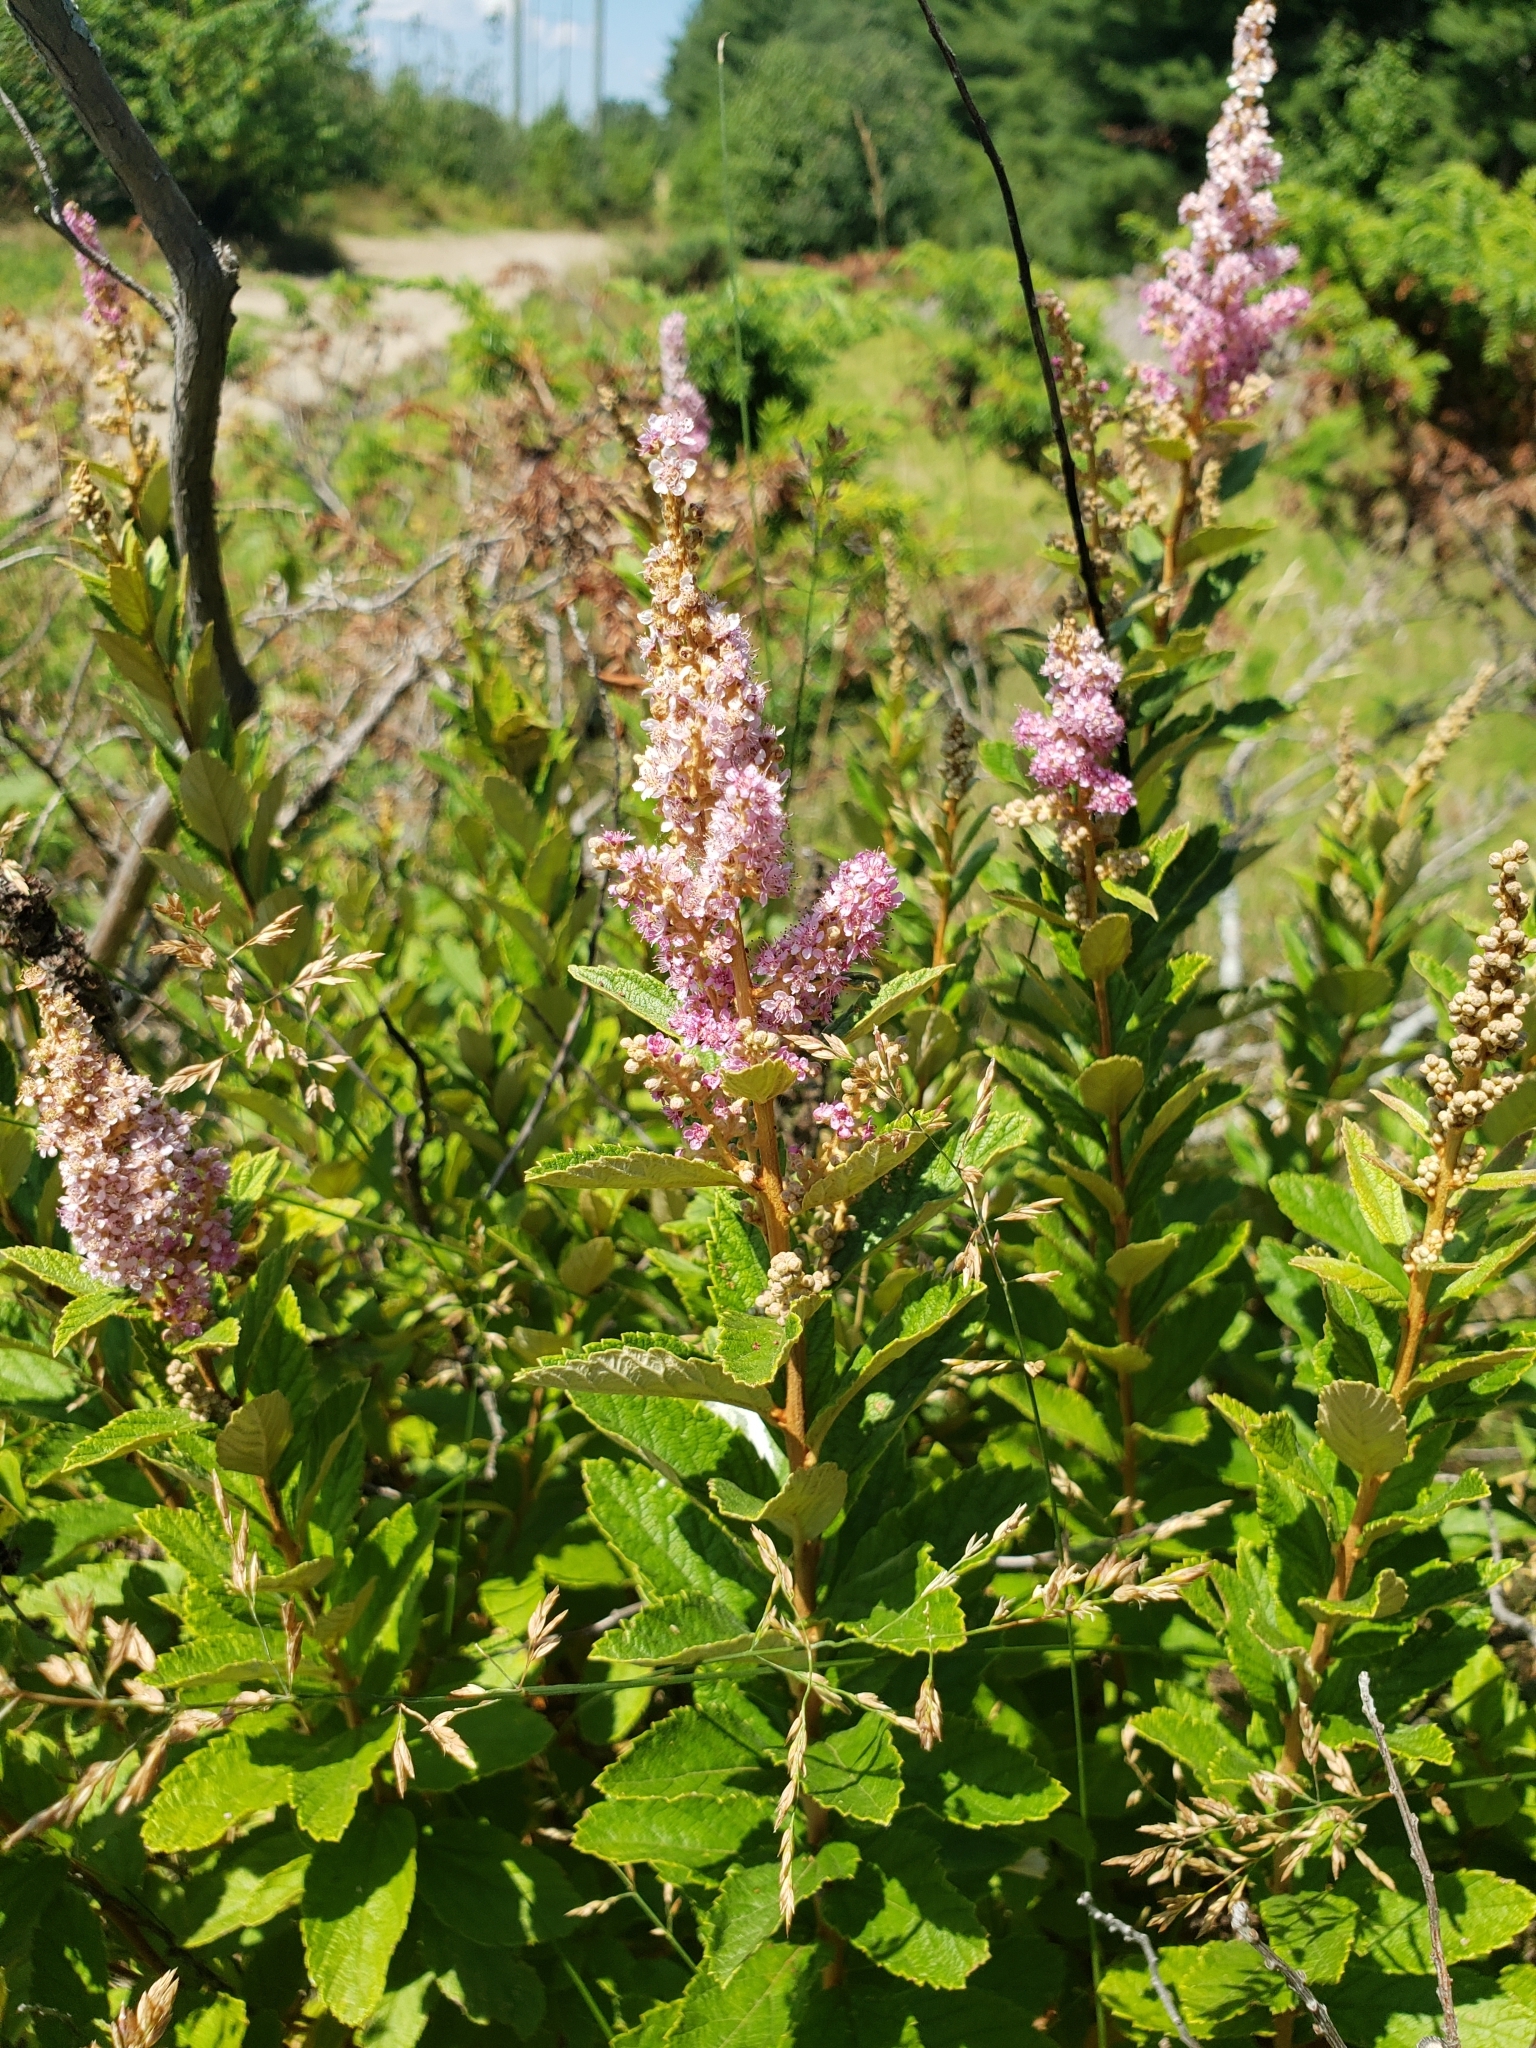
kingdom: Plantae
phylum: Tracheophyta
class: Magnoliopsida
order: Rosales
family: Rosaceae
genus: Spiraea
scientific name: Spiraea tomentosa
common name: Hardhack
